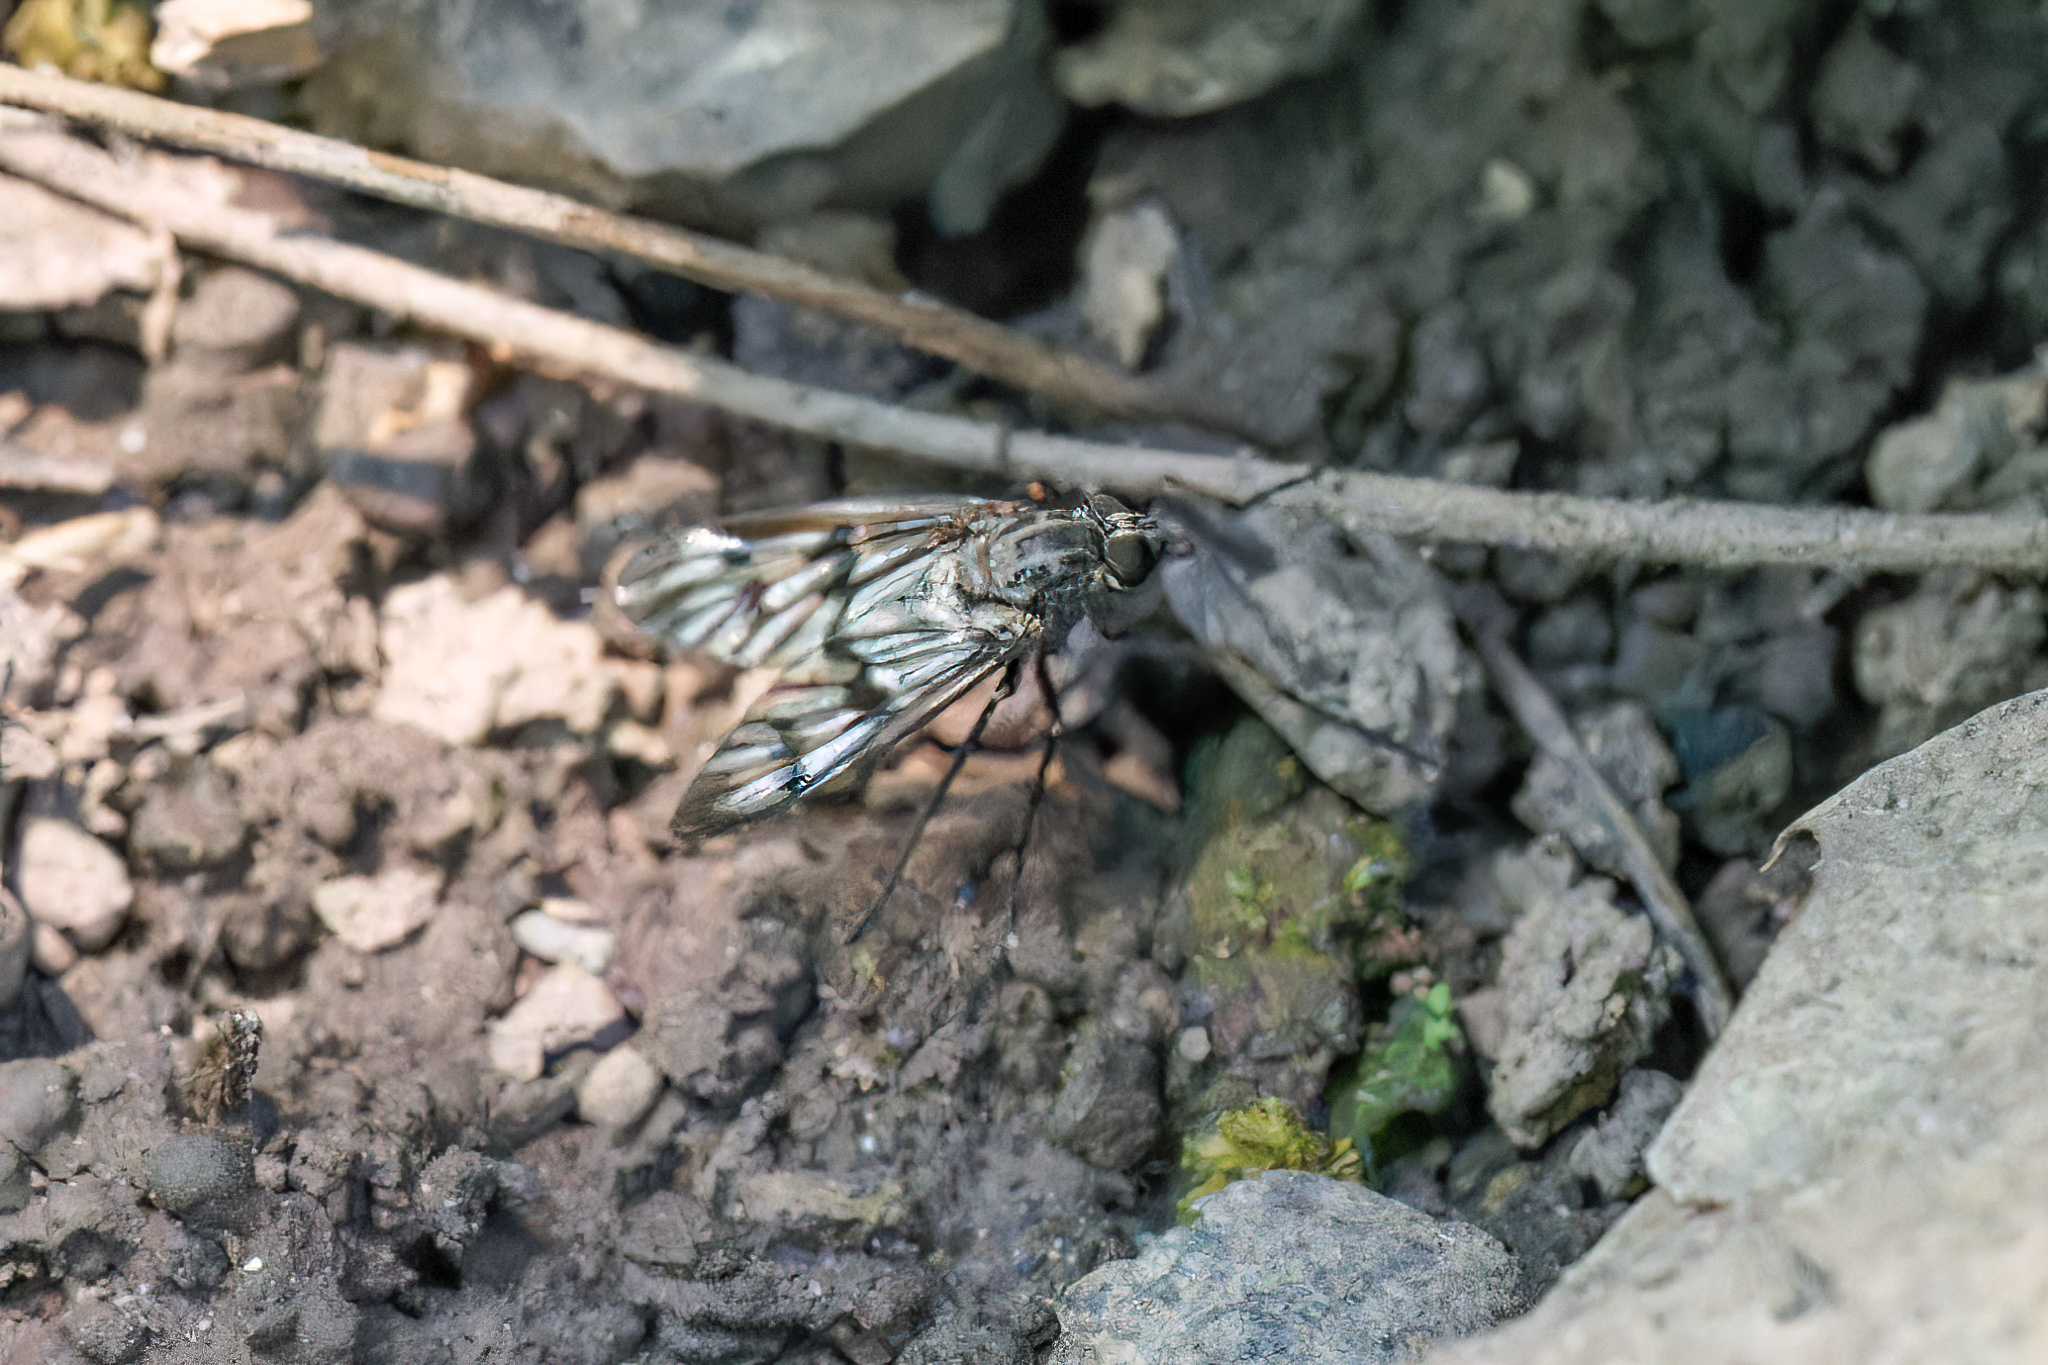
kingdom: Animalia
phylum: Arthropoda
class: Insecta
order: Diptera
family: Rhagionidae
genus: Rhagio
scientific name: Rhagio mystaceus
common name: Common snipe fly
